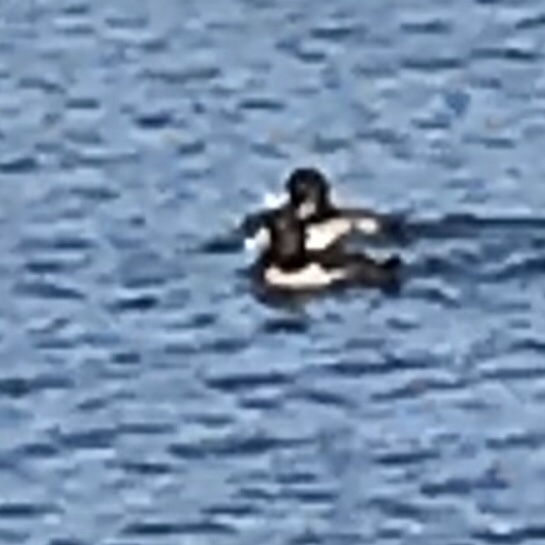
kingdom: Animalia
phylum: Chordata
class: Aves
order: Anseriformes
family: Anatidae
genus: Aythya
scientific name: Aythya collaris
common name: Ring-necked duck
